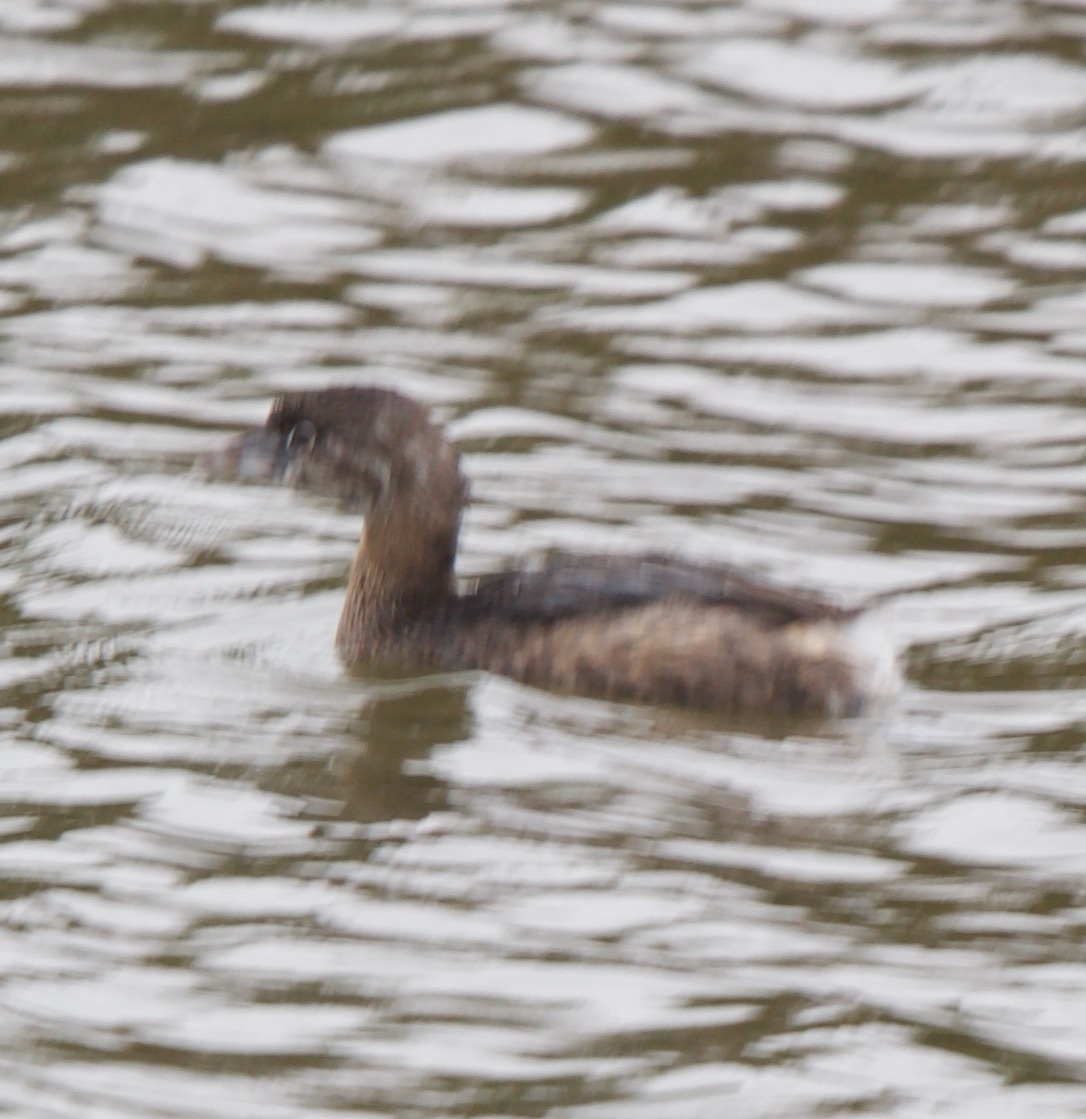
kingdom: Animalia
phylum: Chordata
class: Aves
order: Podicipediformes
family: Podicipedidae
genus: Podilymbus
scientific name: Podilymbus podiceps
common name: Pied-billed grebe
